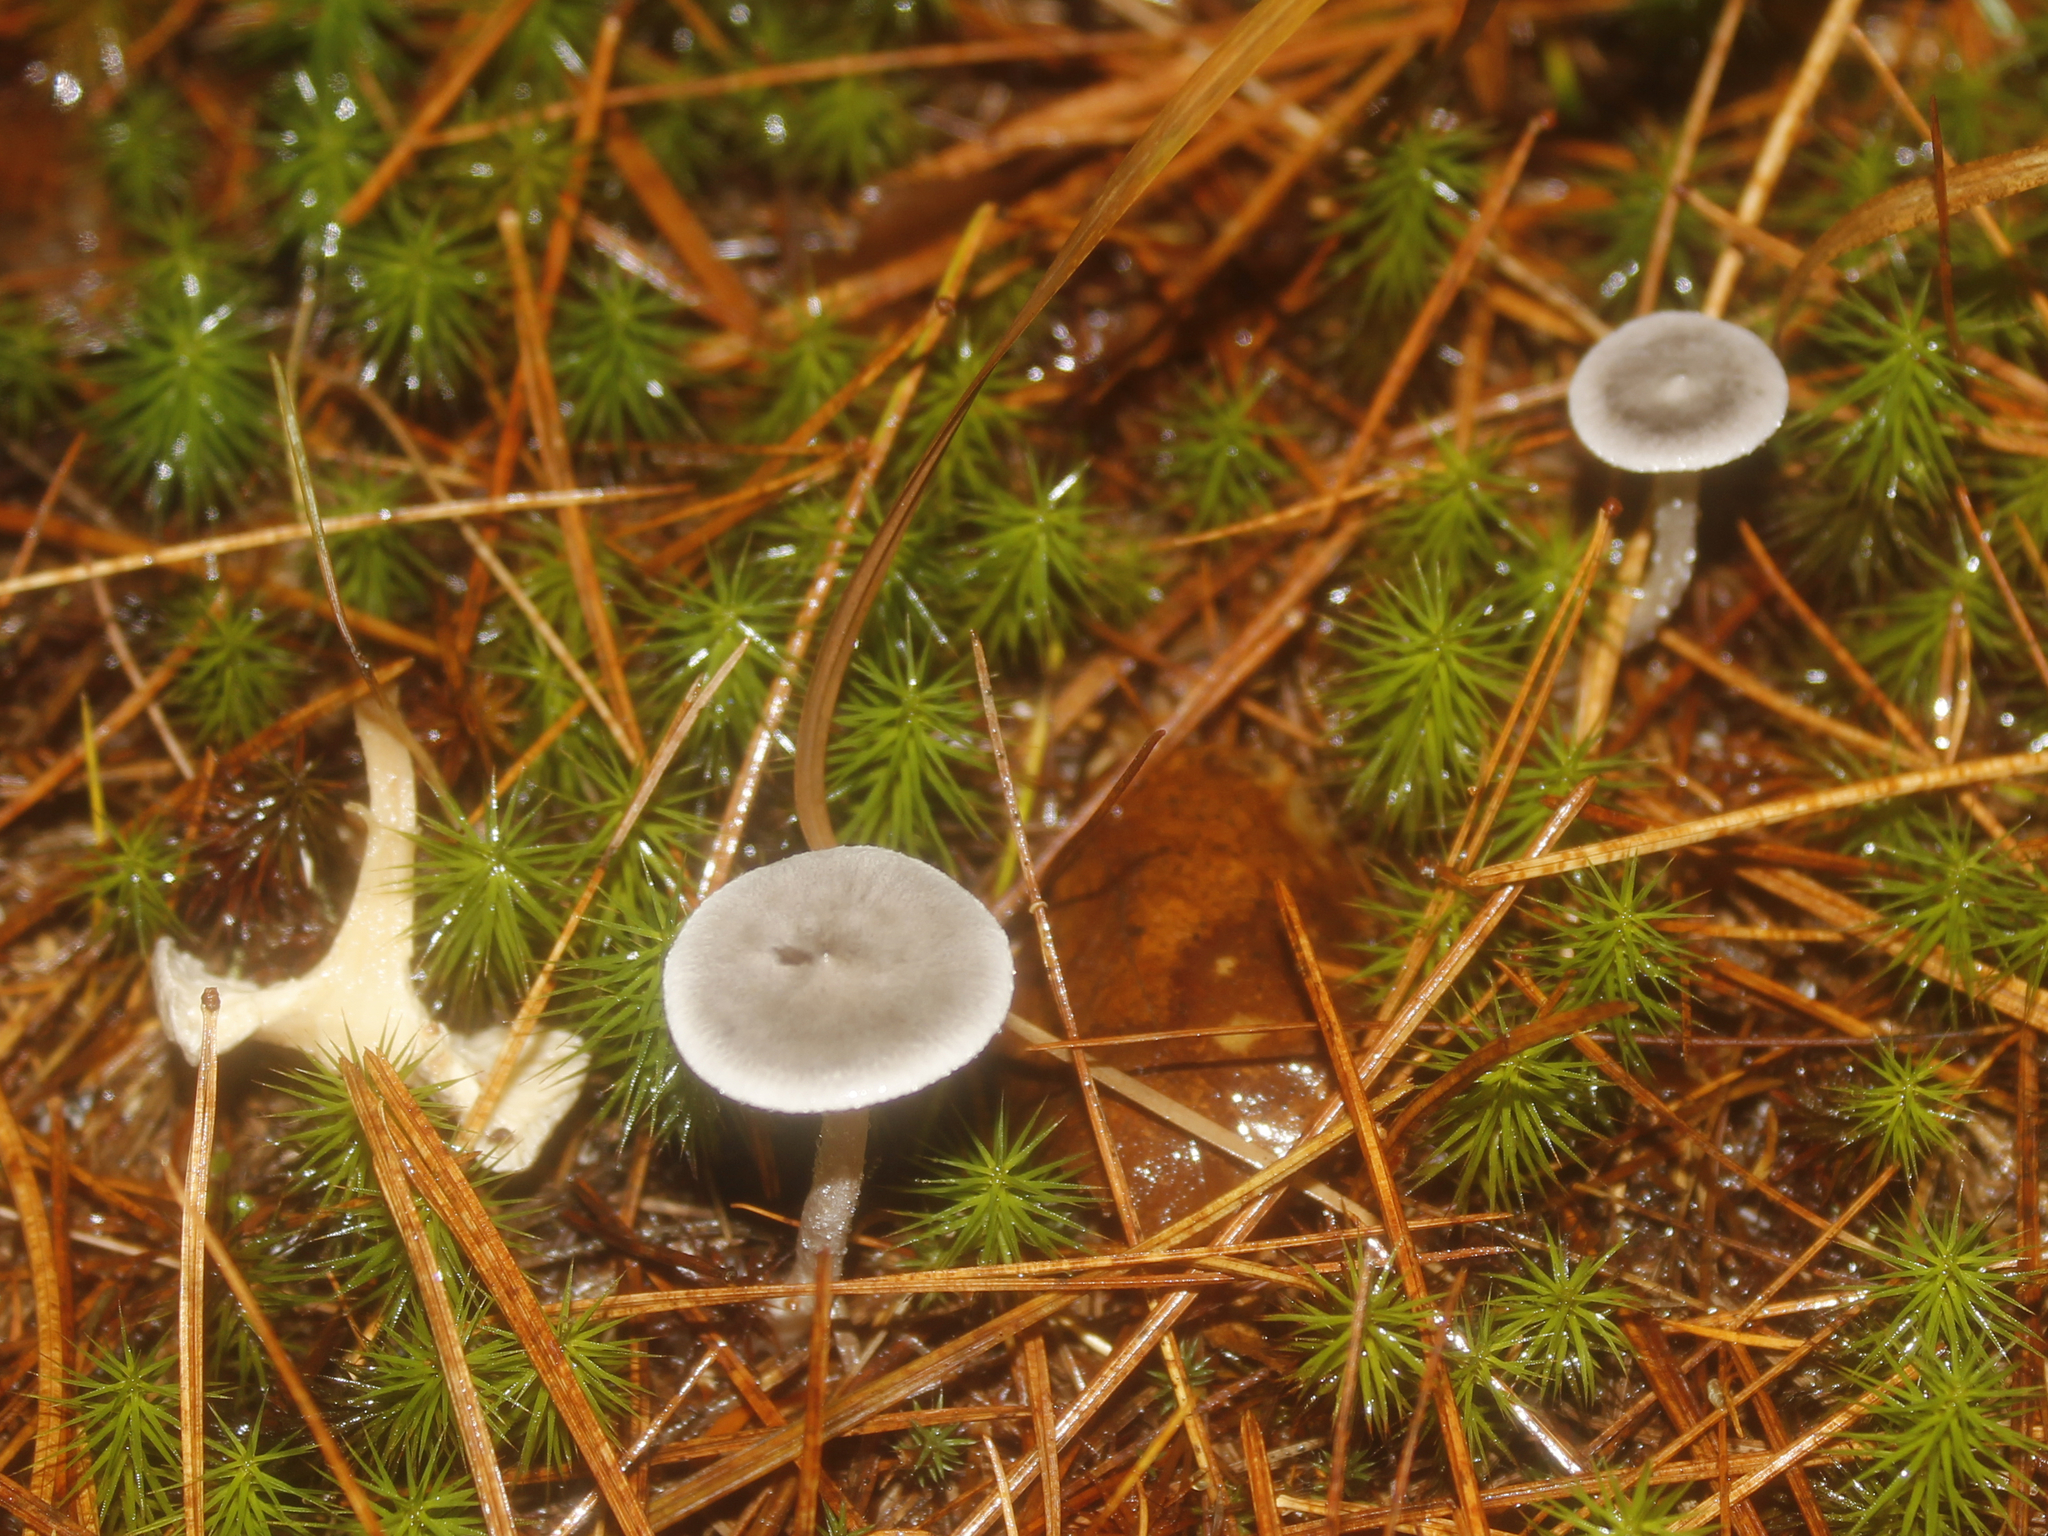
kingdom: Fungi
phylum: Basidiomycota
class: Agaricomycetes
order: Agaricales
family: Hygrophoraceae
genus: Cantharellula
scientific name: Cantharellula umbonata
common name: The humpback
